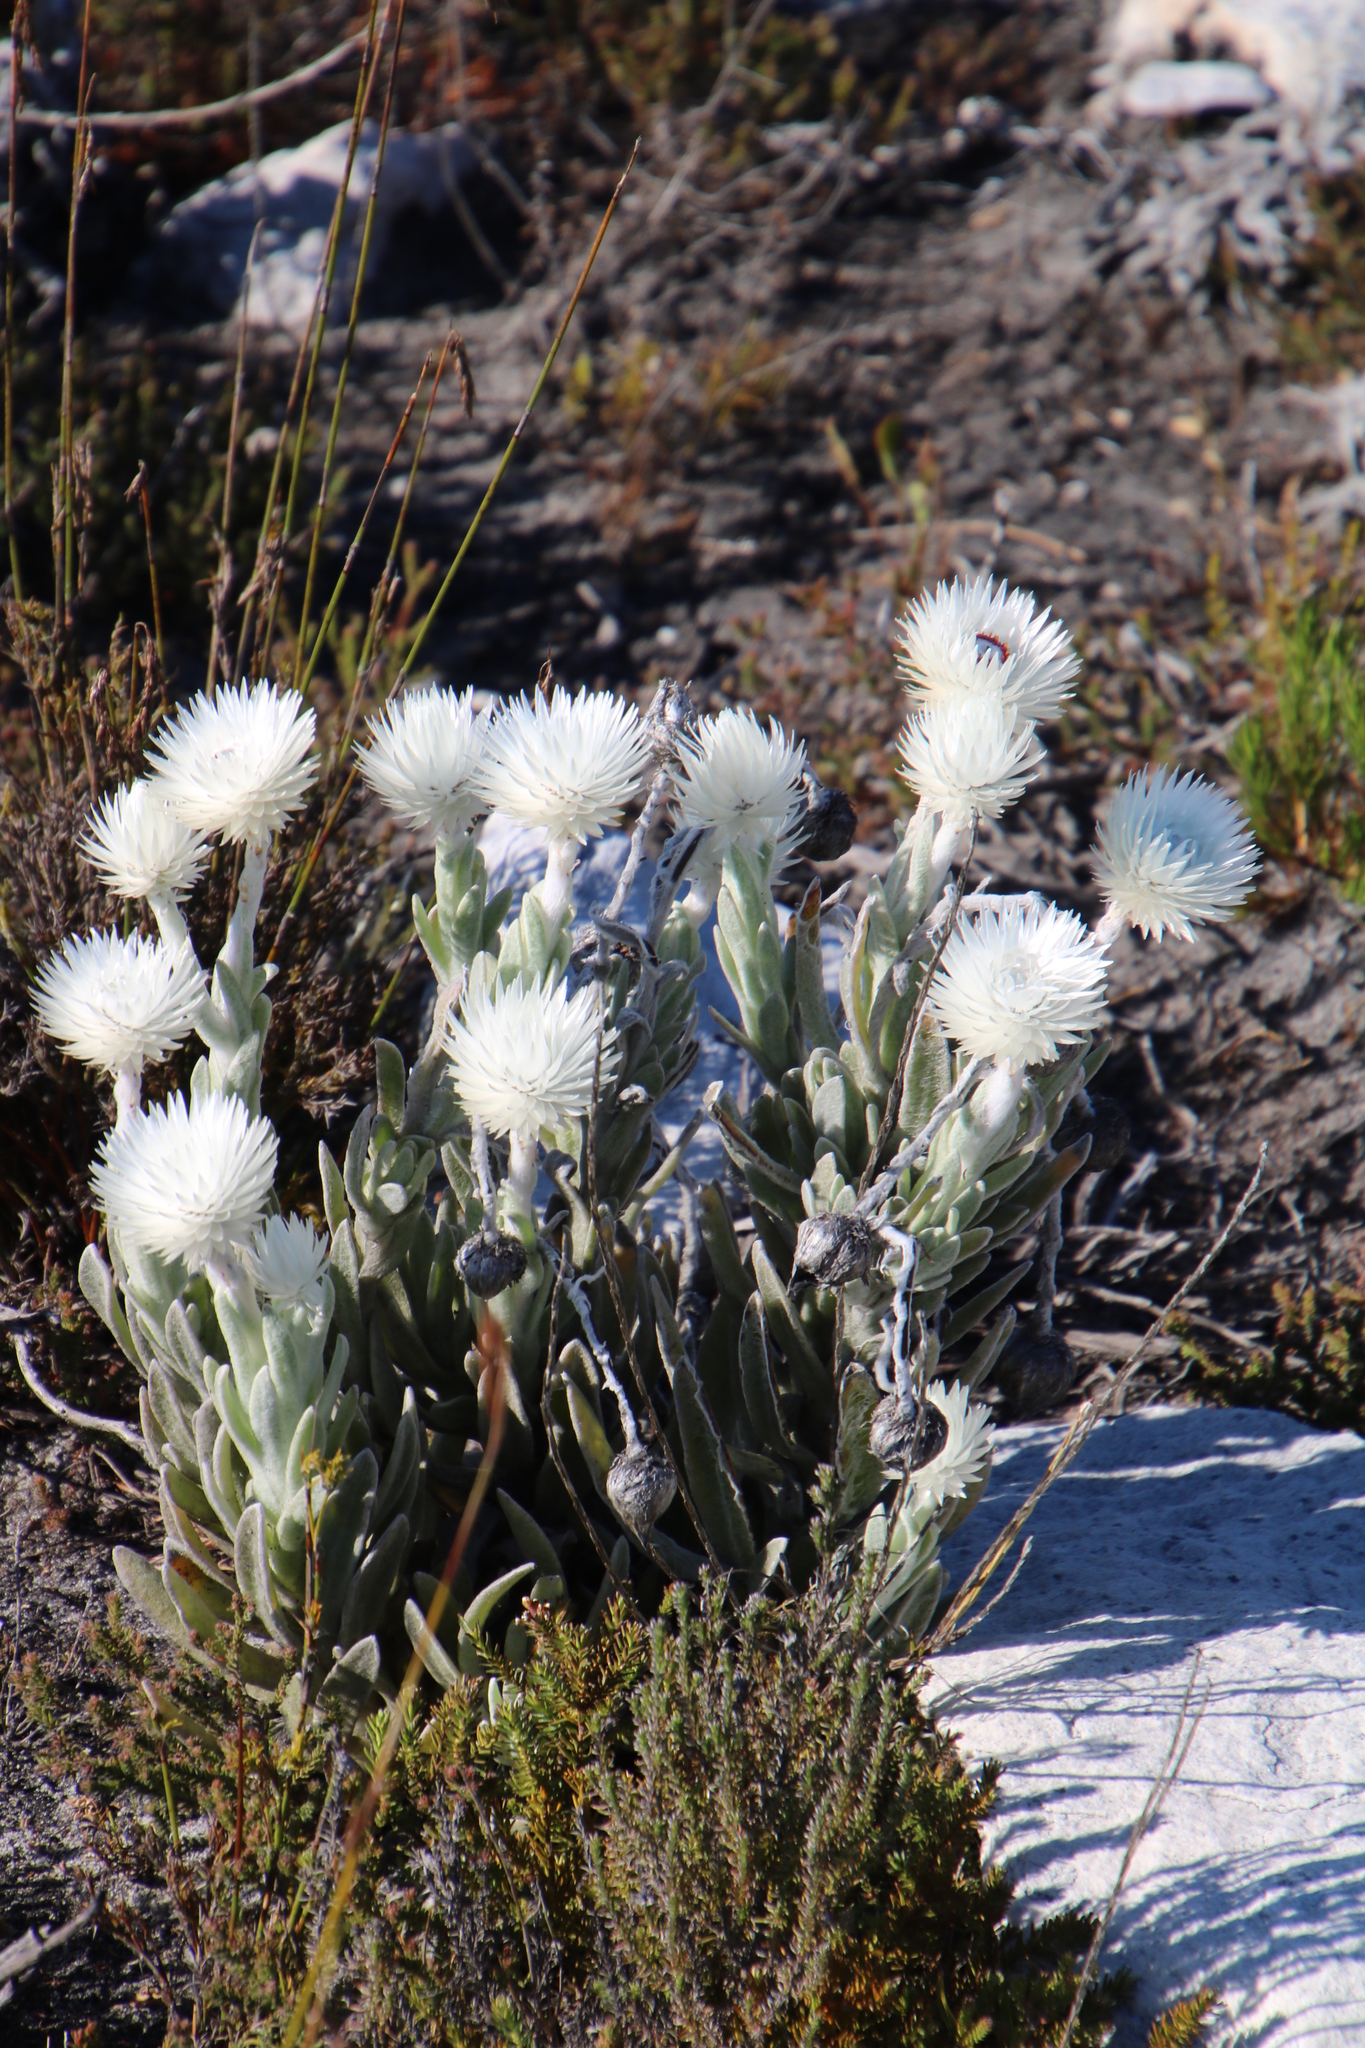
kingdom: Plantae
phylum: Tracheophyta
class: Magnoliopsida
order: Asterales
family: Asteraceae
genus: Syncarpha
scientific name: Syncarpha vestita
